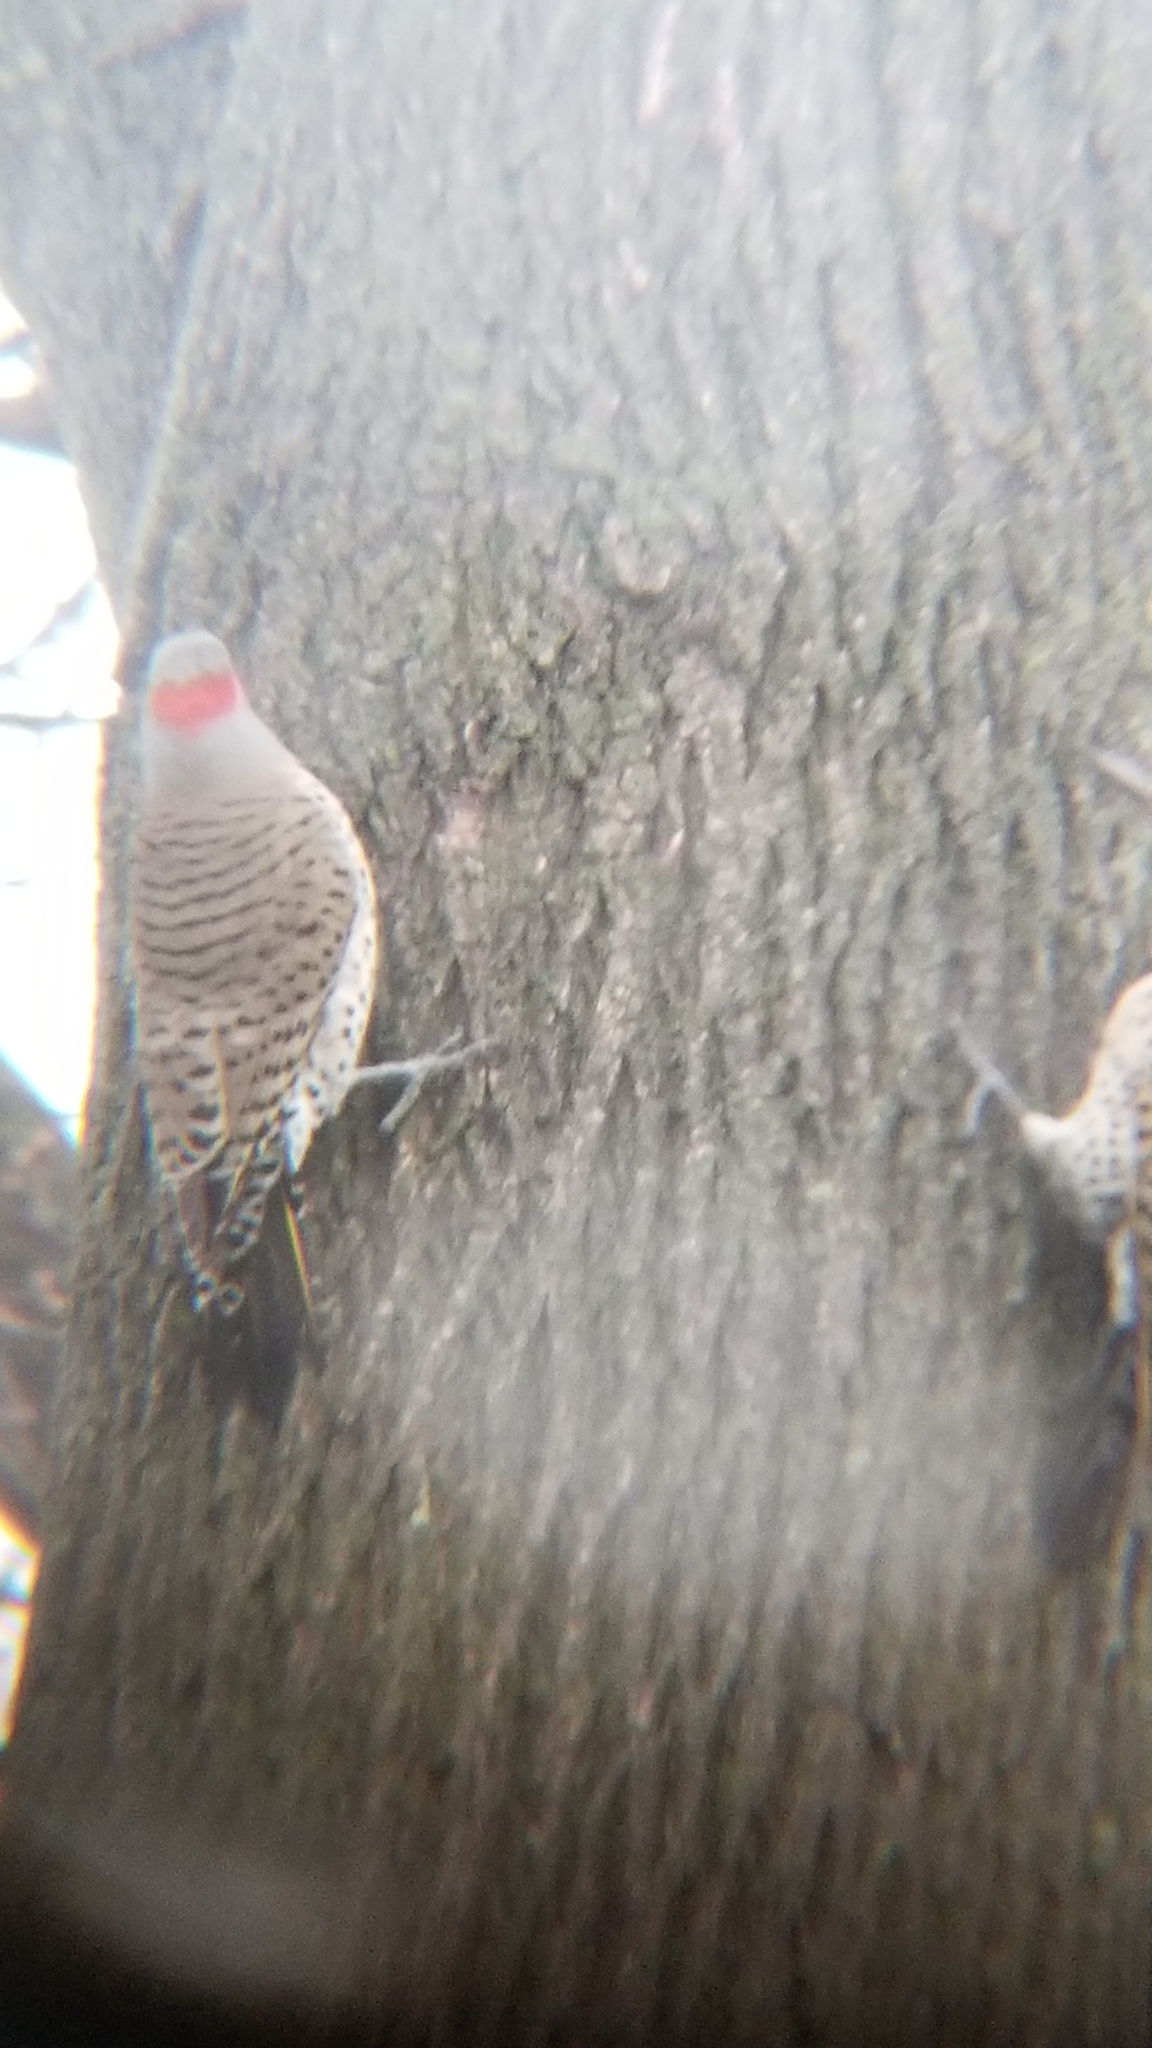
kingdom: Animalia
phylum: Chordata
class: Aves
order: Piciformes
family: Picidae
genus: Colaptes
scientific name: Colaptes auratus
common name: Northern flicker
